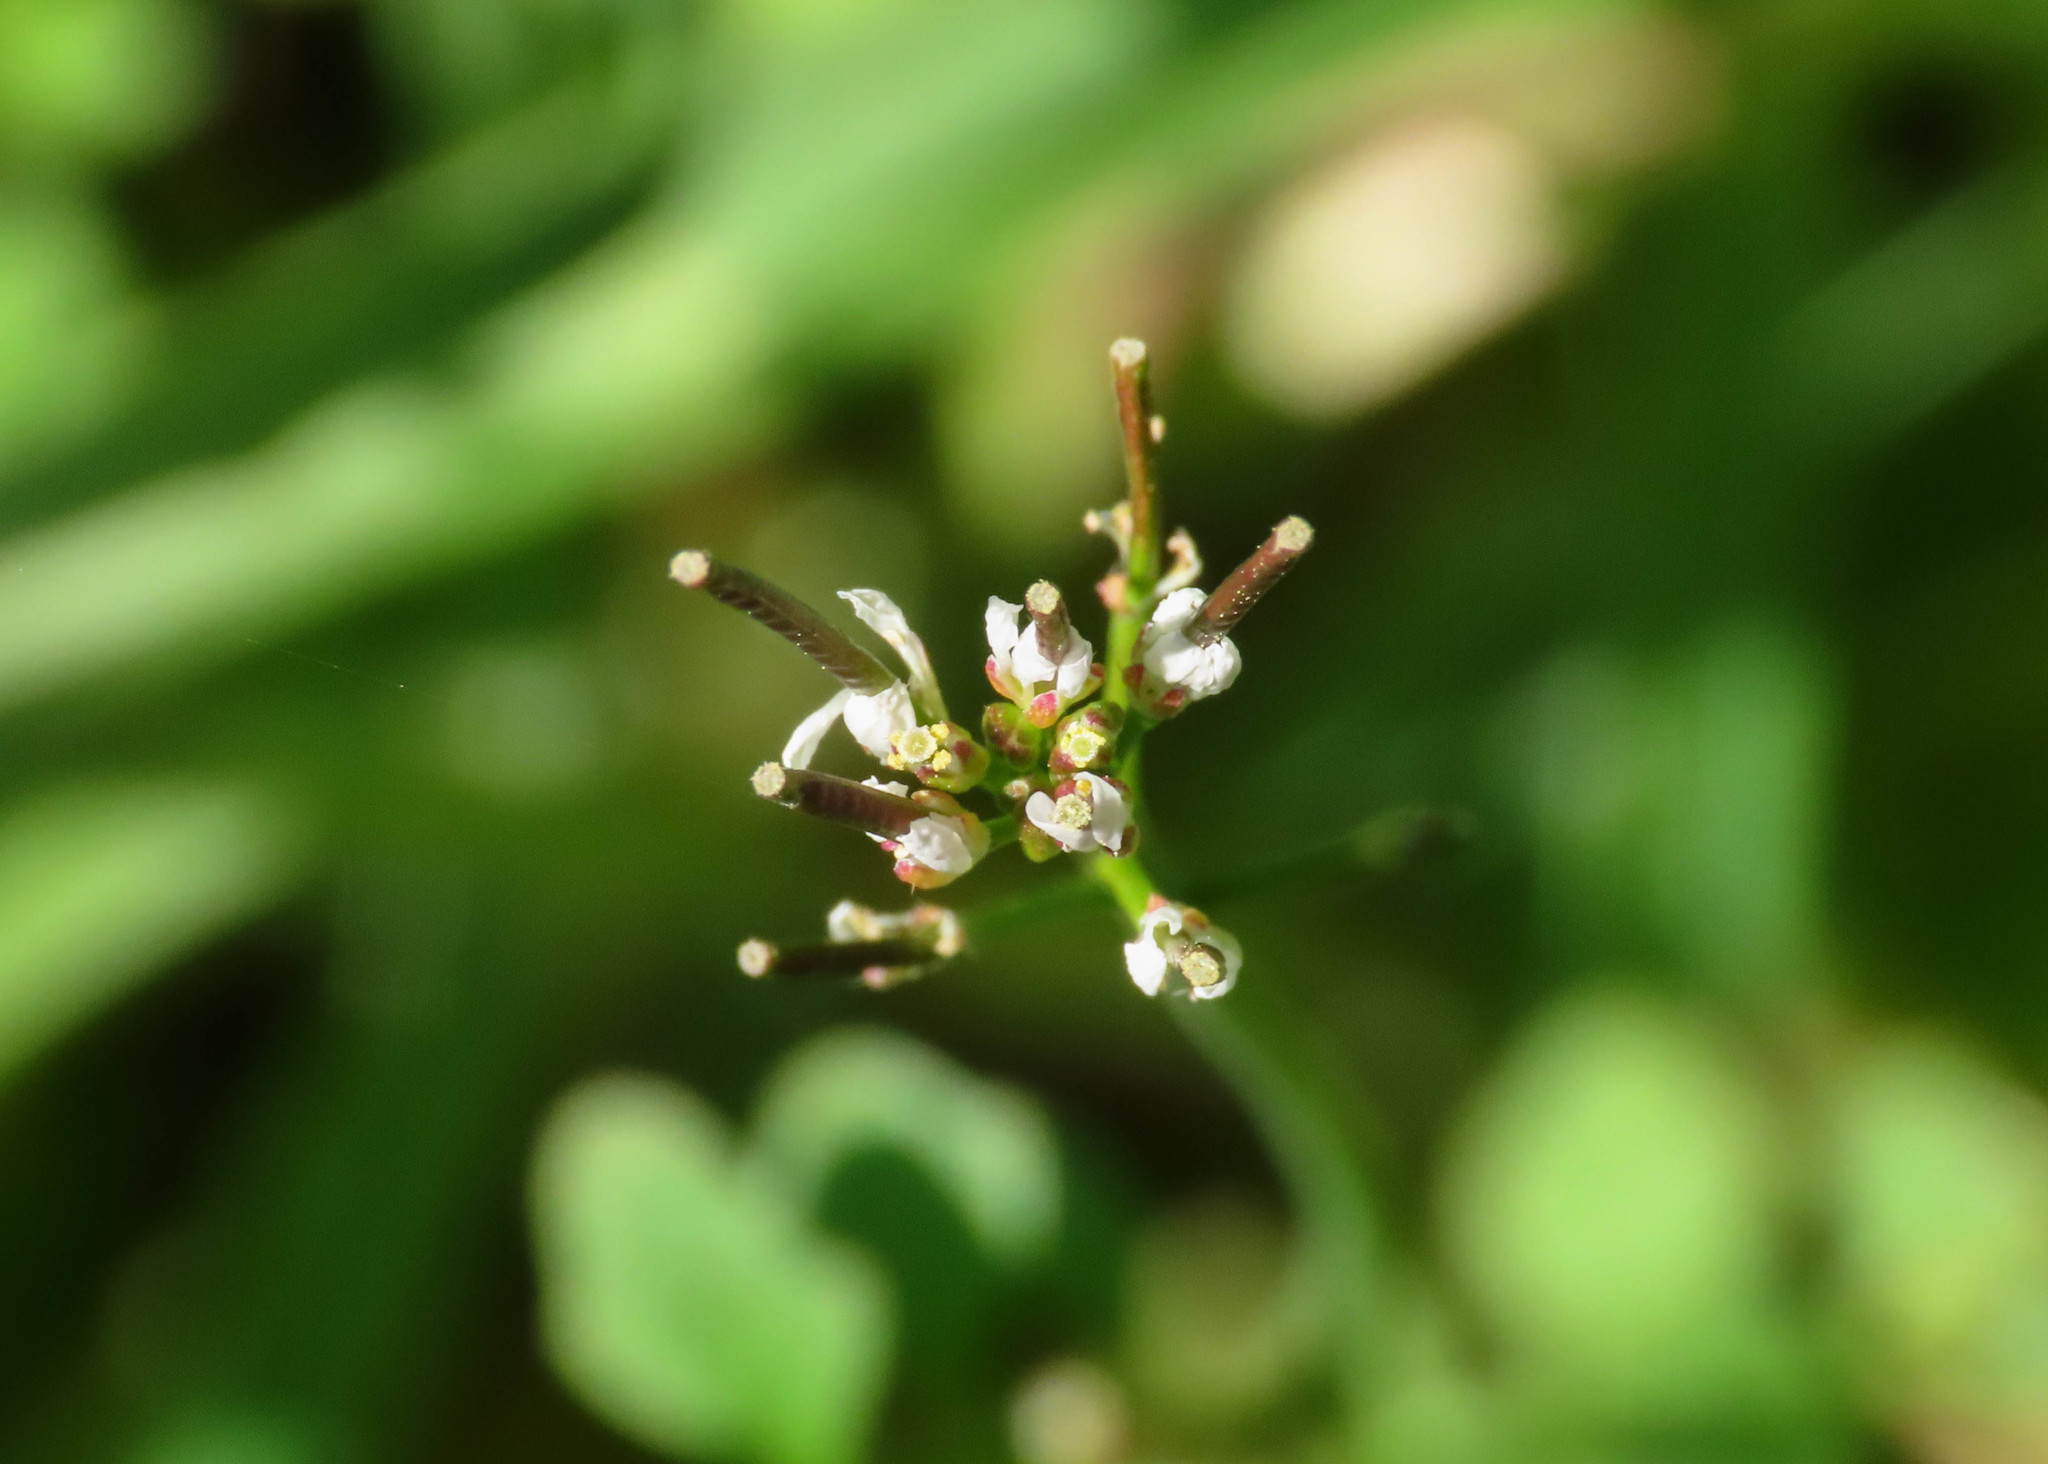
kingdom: Plantae
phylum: Tracheophyta
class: Magnoliopsida
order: Brassicales
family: Brassicaceae
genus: Cardamine
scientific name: Cardamine hirsuta
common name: Hairy bittercress
